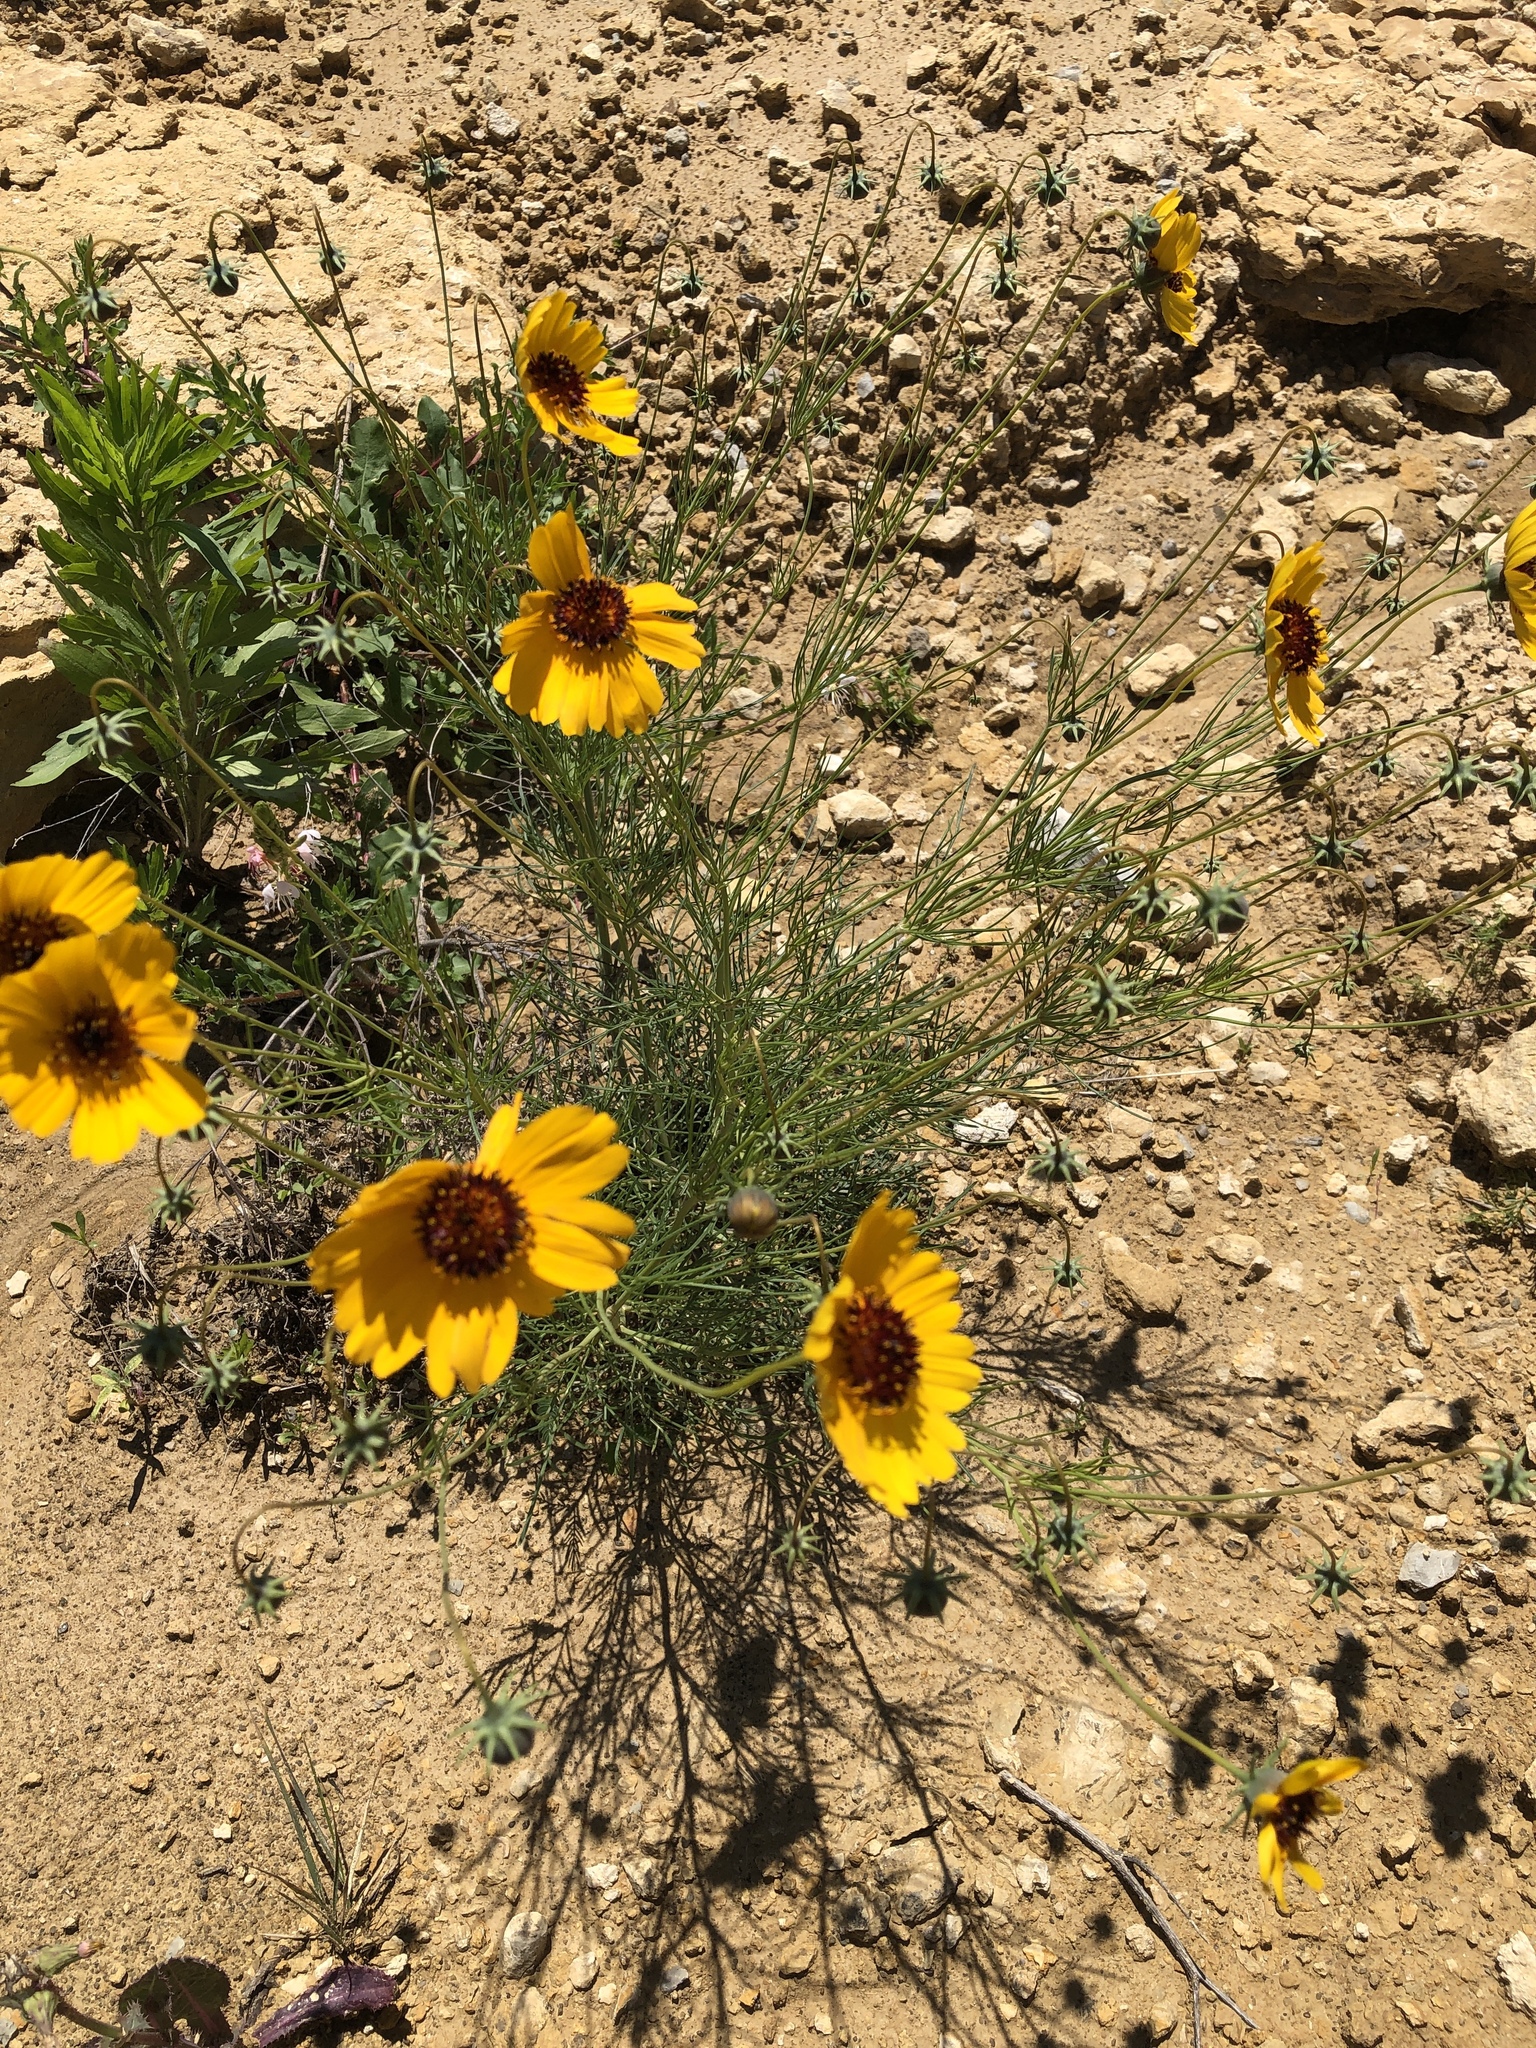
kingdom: Plantae
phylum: Tracheophyta
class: Magnoliopsida
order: Asterales
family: Asteraceae
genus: Thelesperma
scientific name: Thelesperma filifolium
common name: Stiff greenthread
